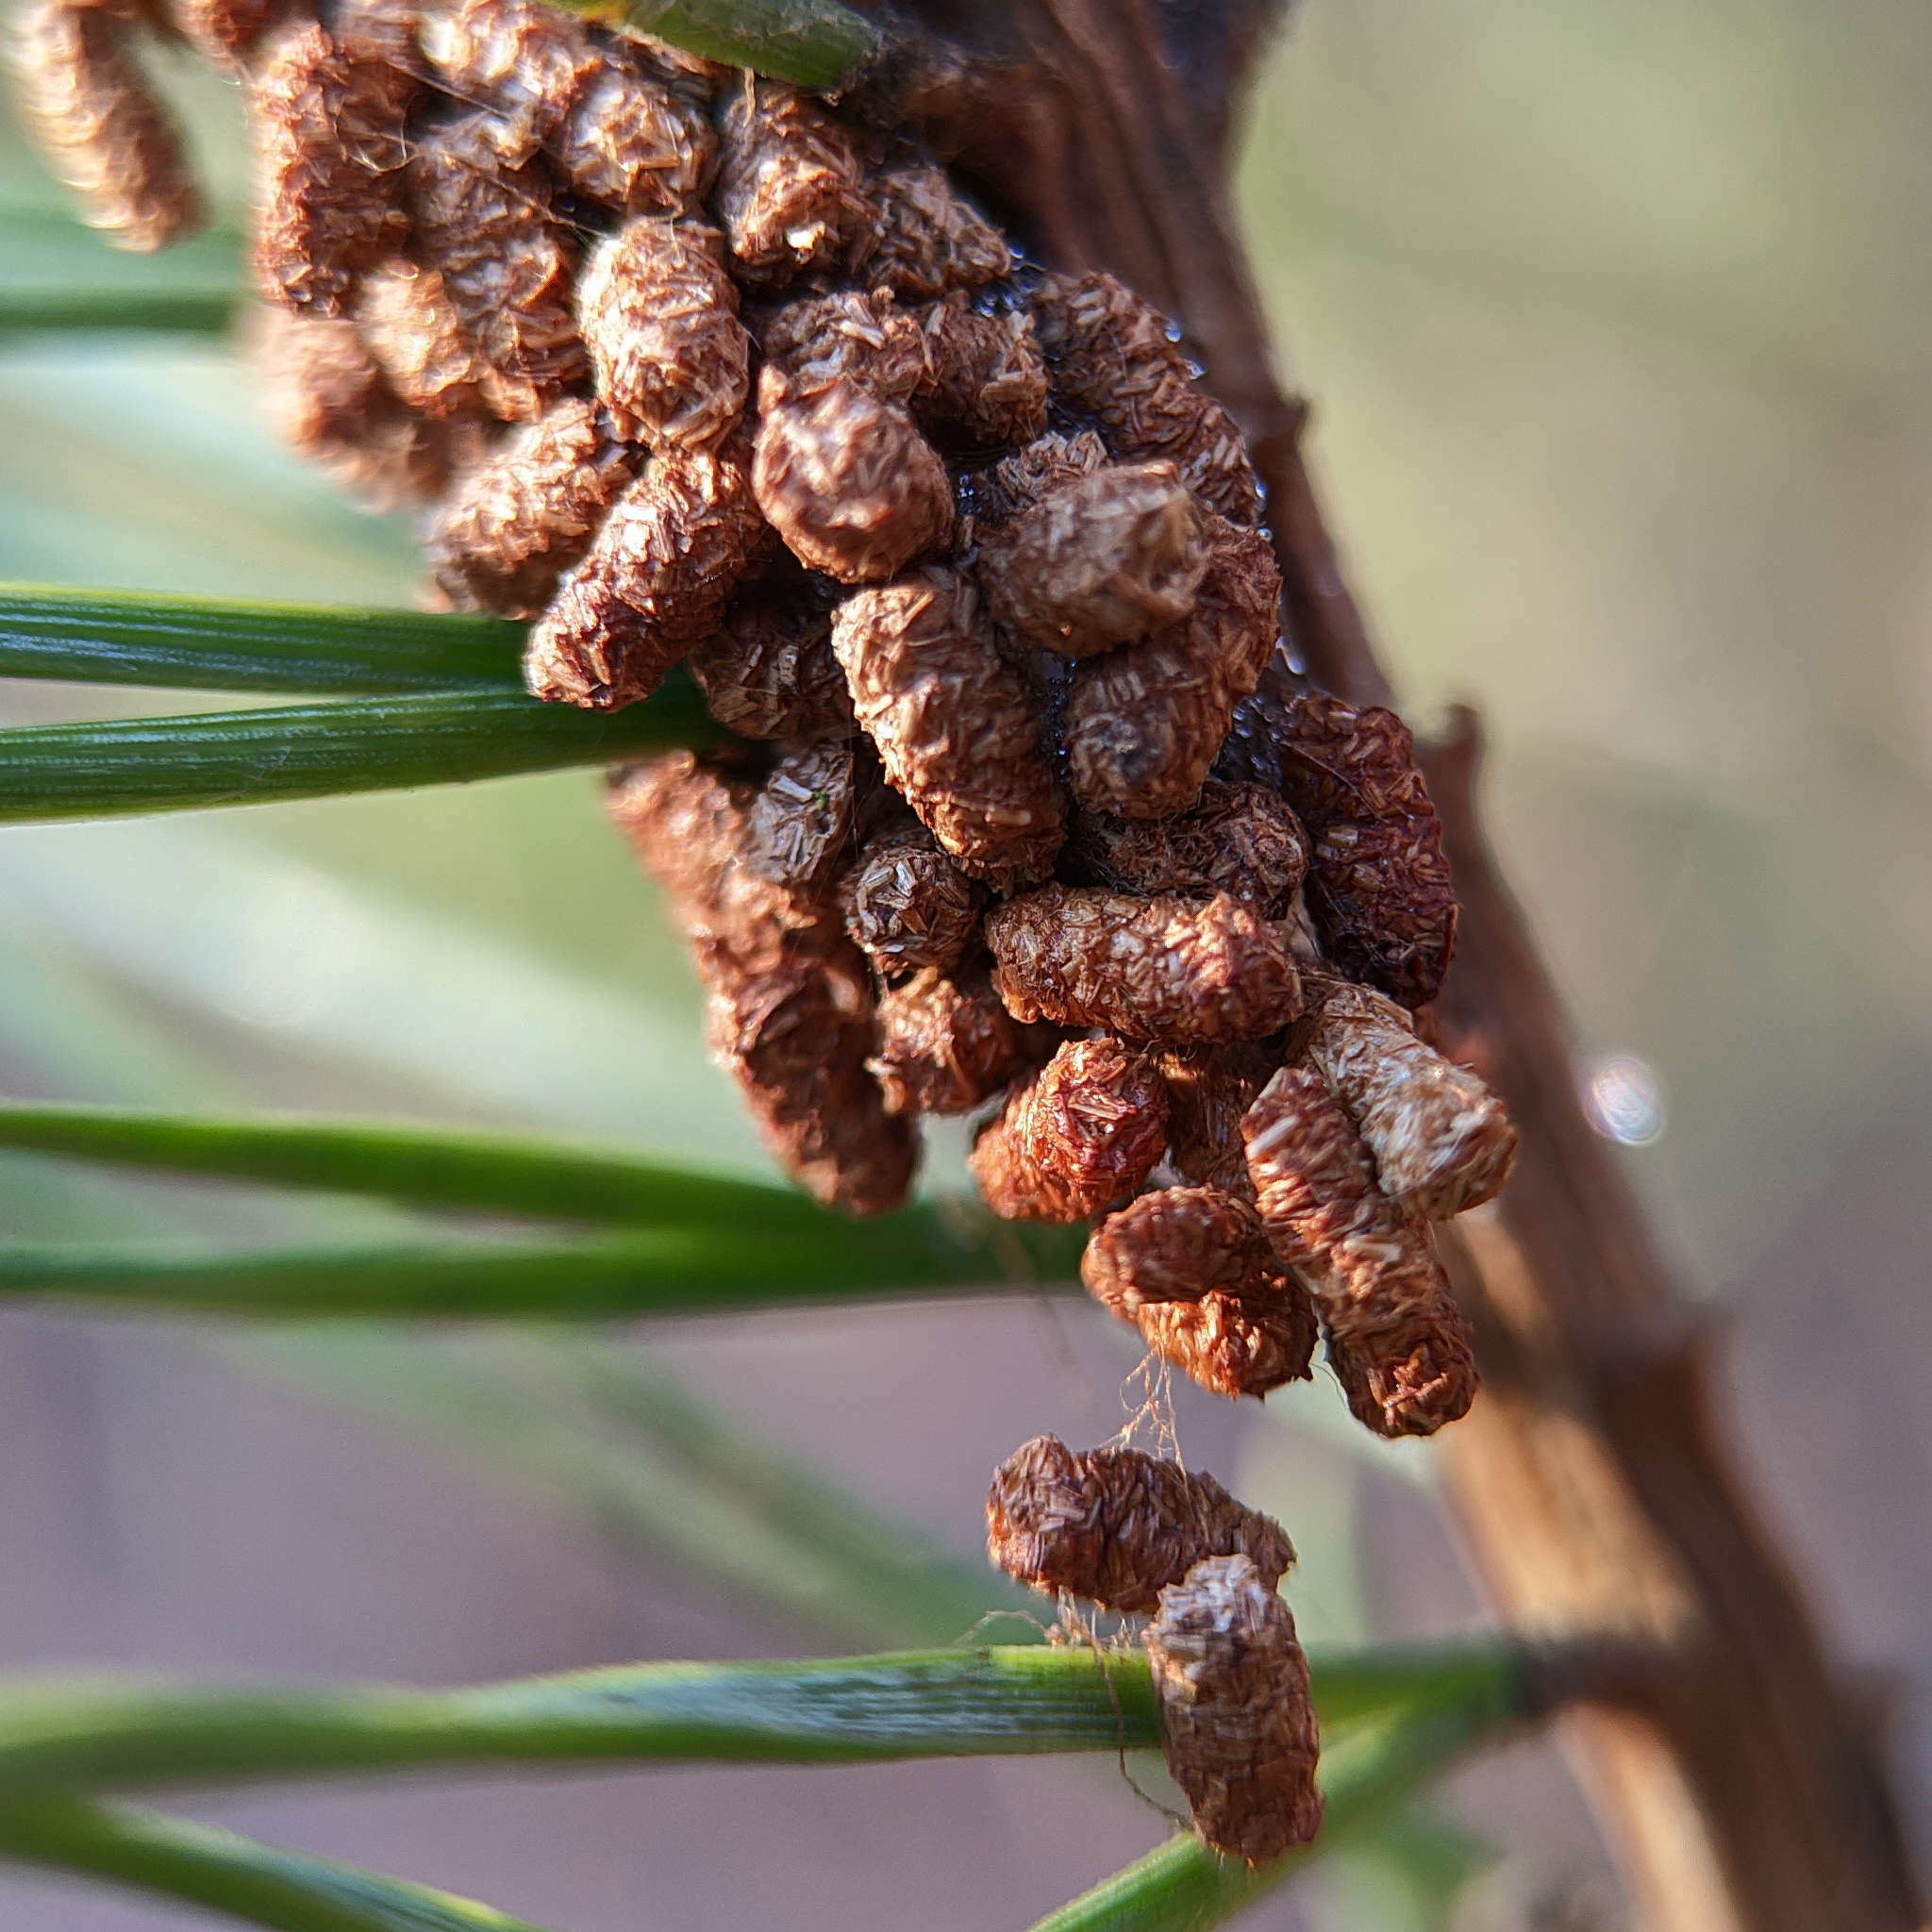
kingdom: Animalia
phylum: Arthropoda
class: Insecta
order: Hymenoptera
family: Pamphiliidae
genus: Acantholyda
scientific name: Acantholyda hieroglyphica
